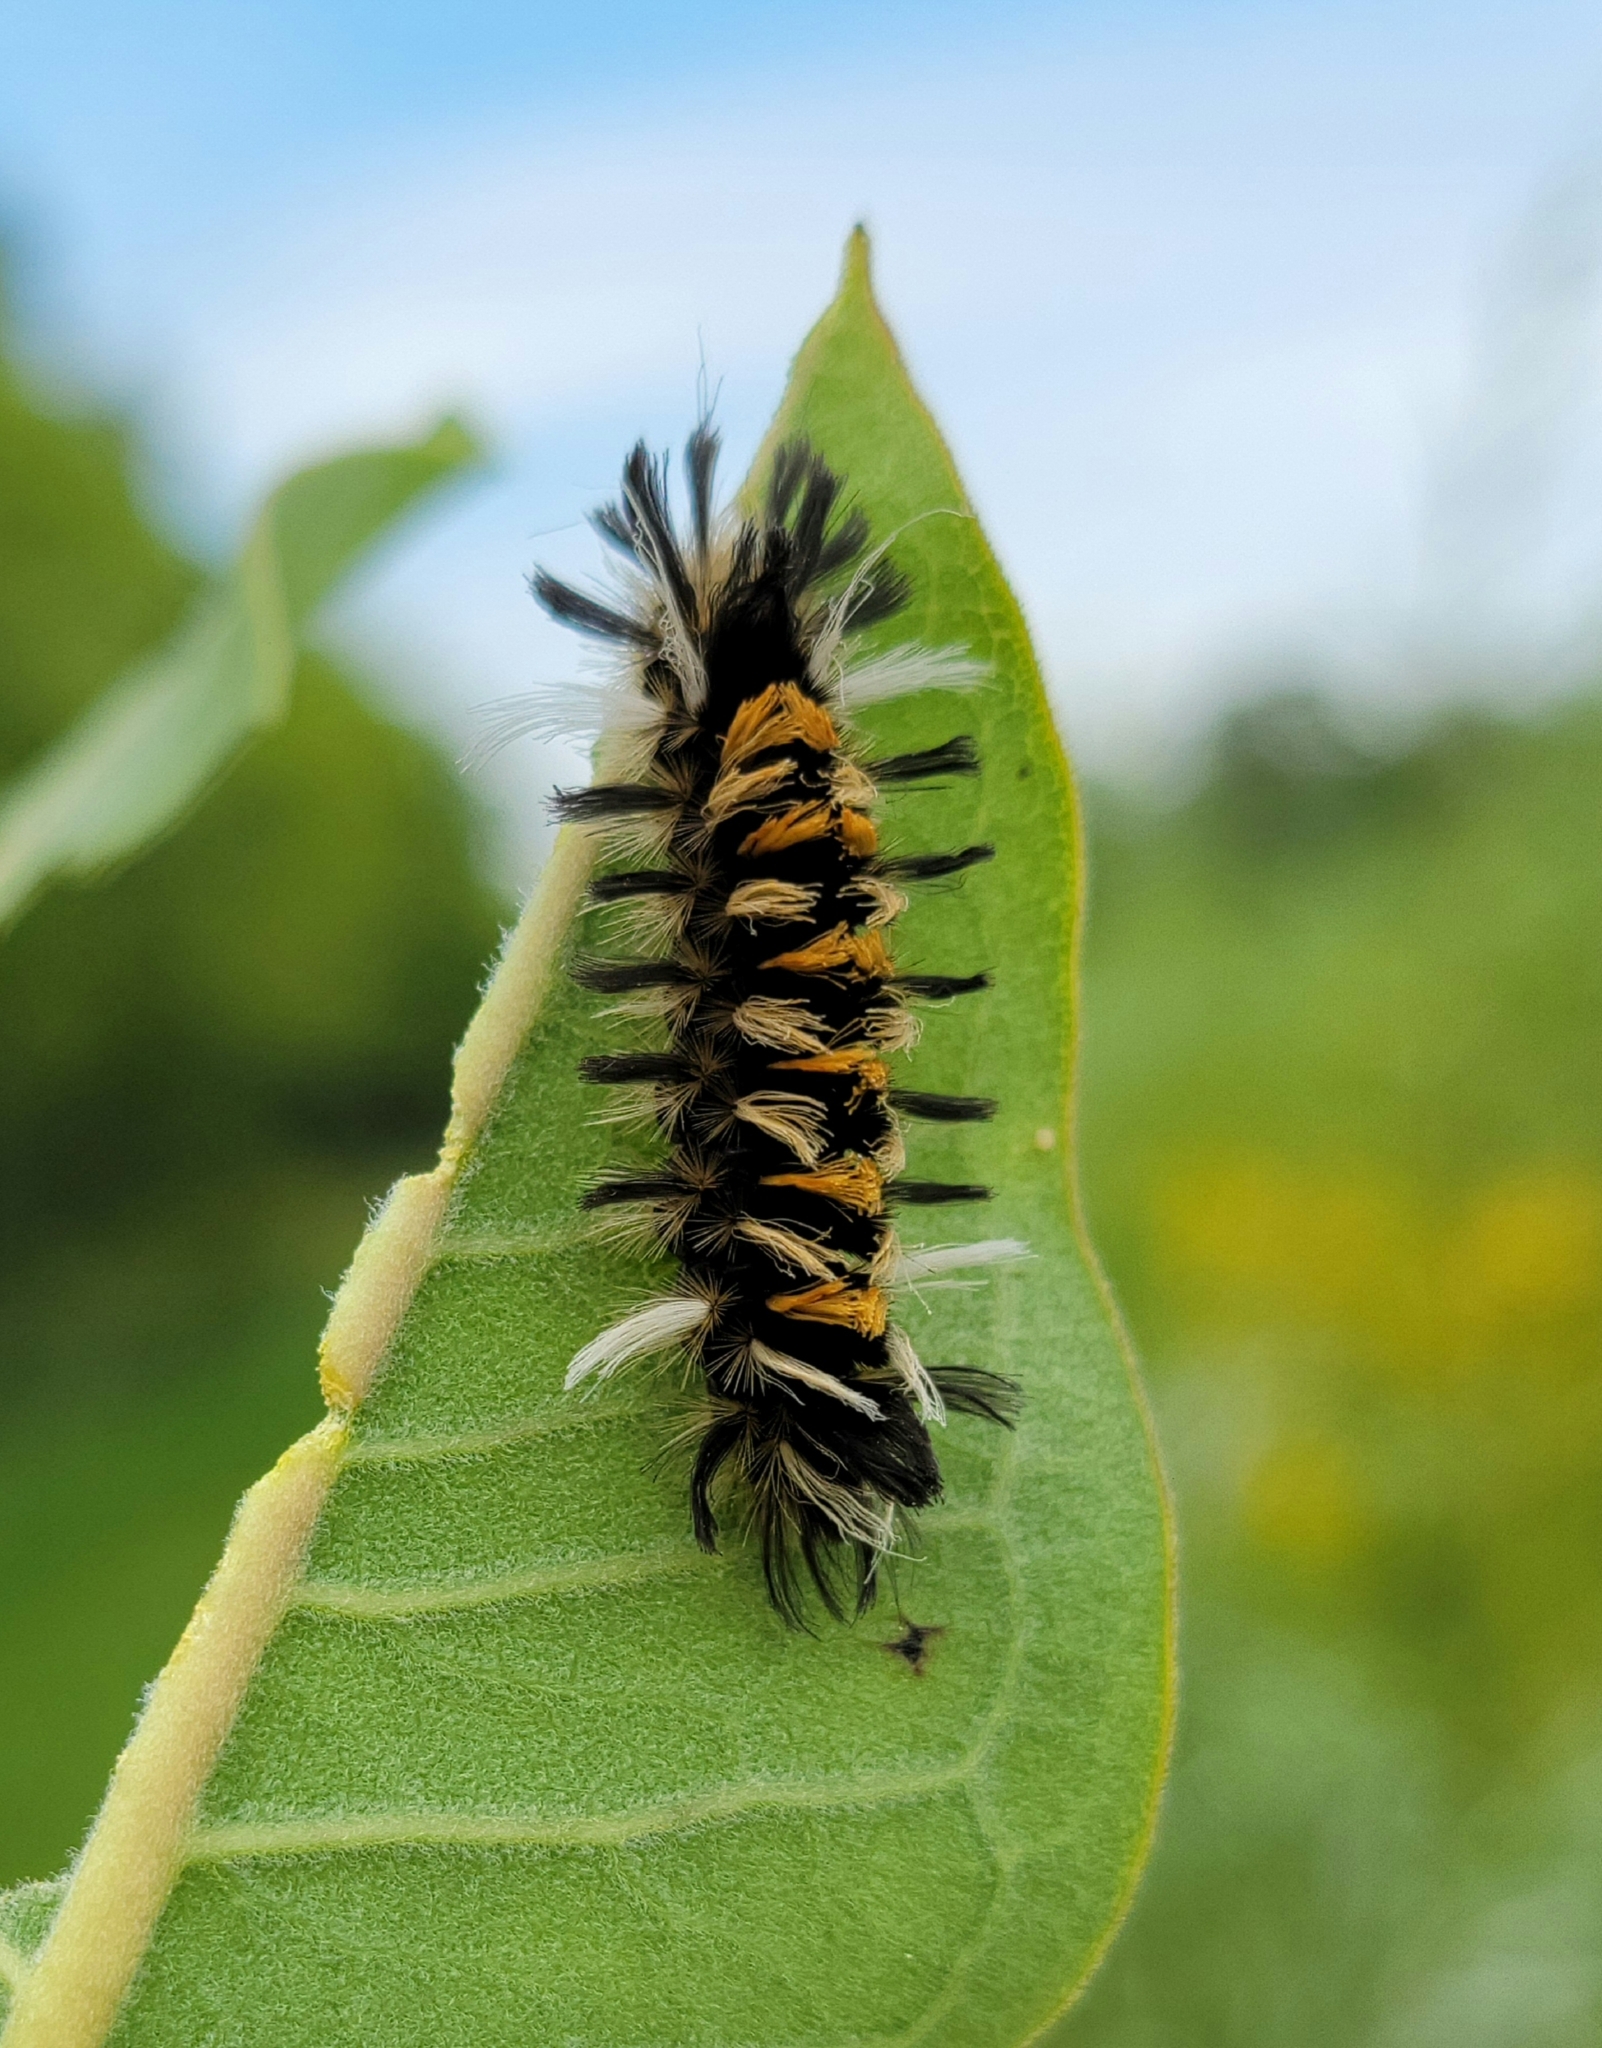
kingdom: Animalia
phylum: Arthropoda
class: Insecta
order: Lepidoptera
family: Erebidae
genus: Euchaetes
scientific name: Euchaetes egle
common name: Milkweed tussock moth
